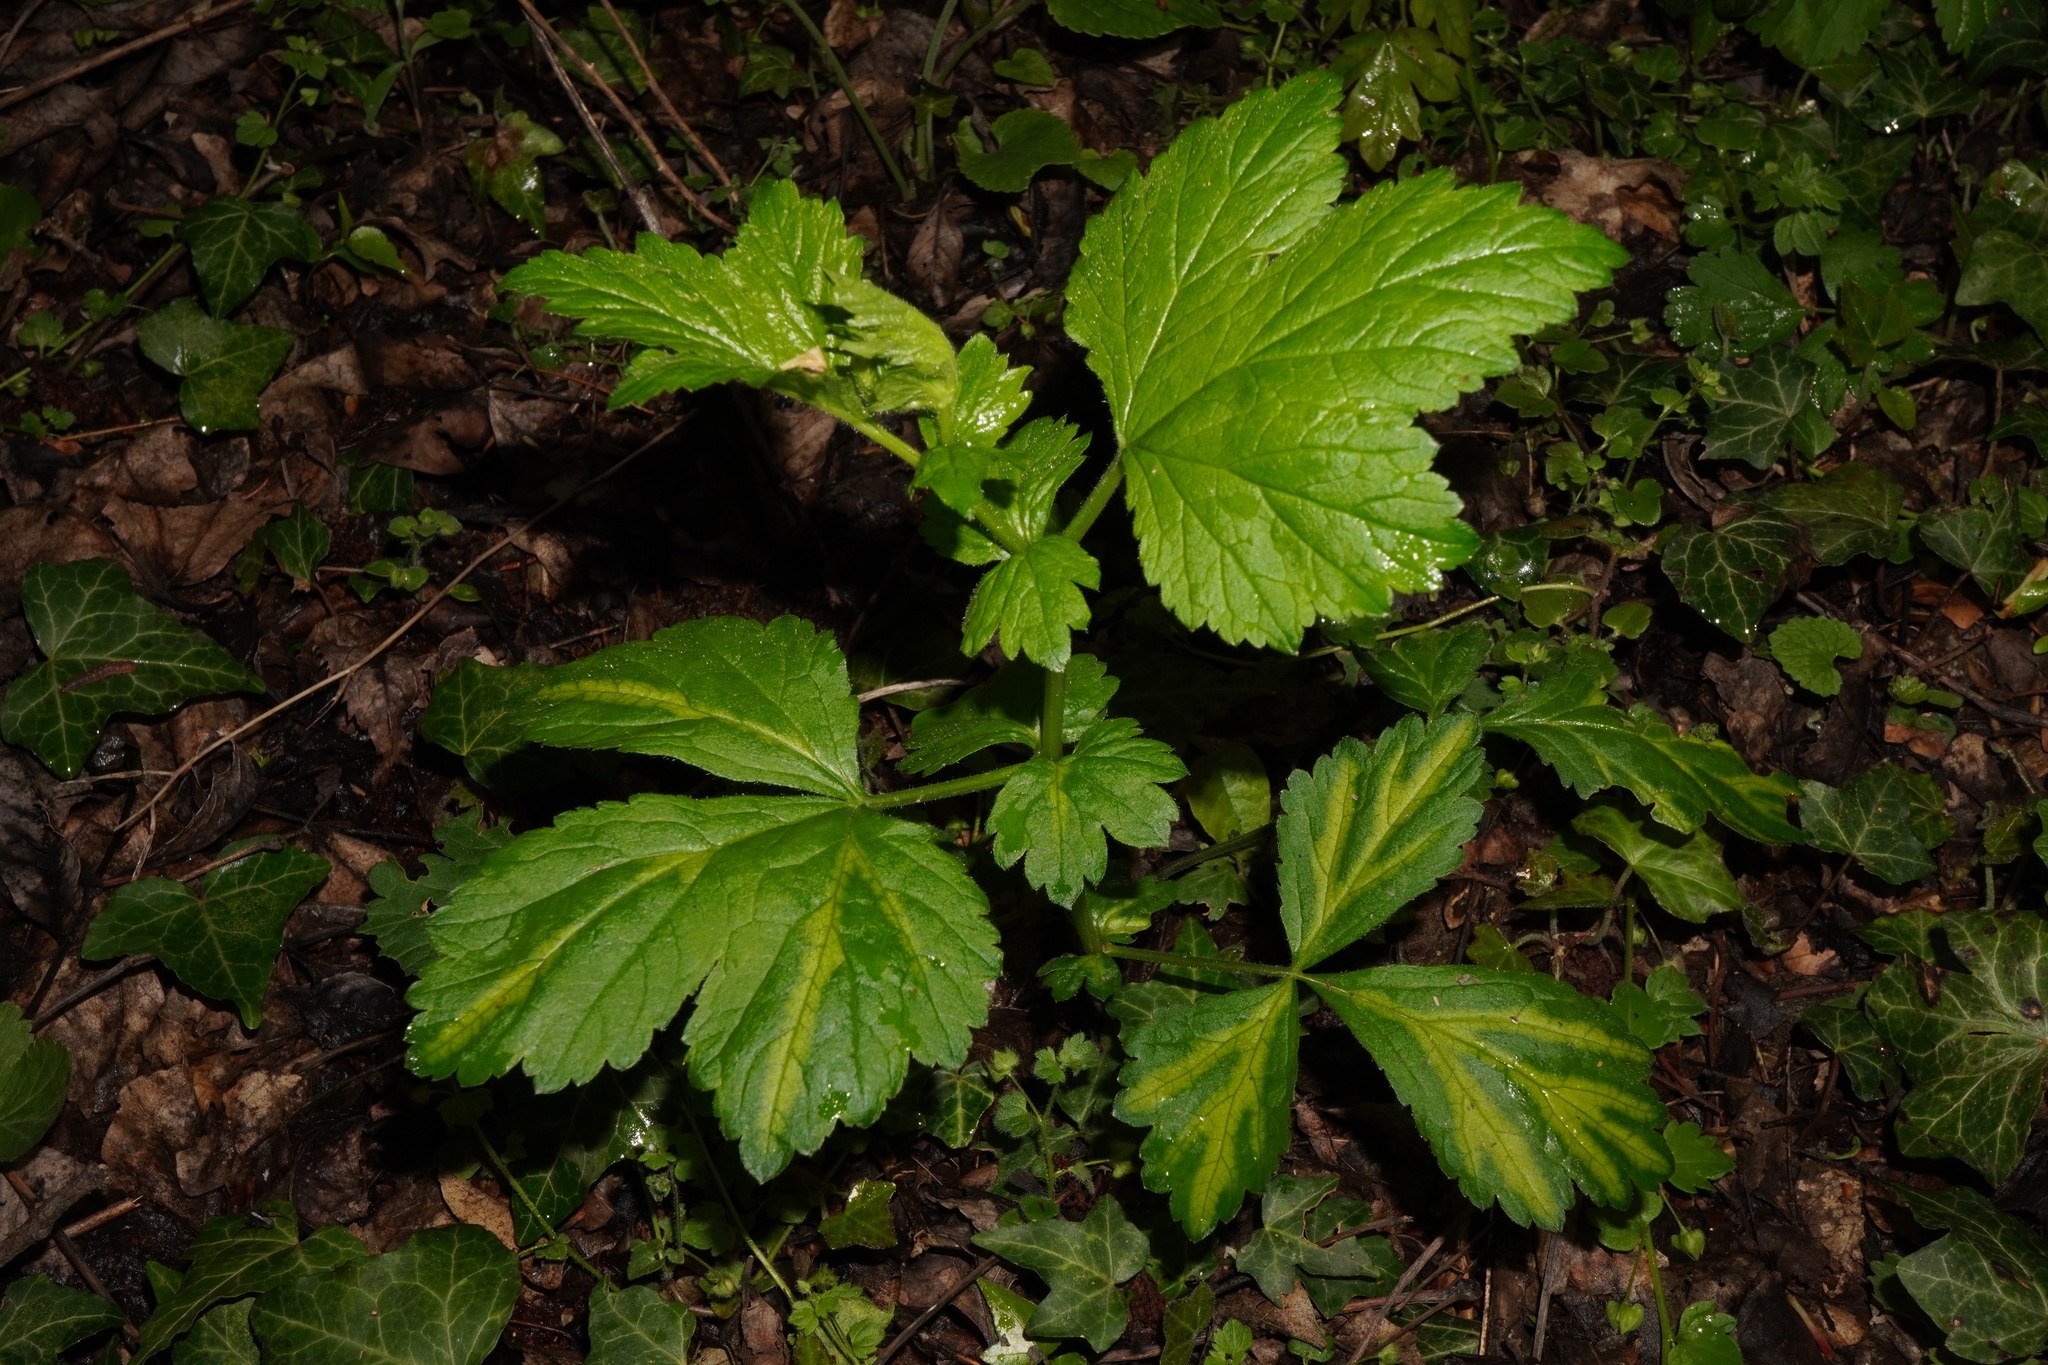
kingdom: Plantae
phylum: Tracheophyta
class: Magnoliopsida
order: Rosales
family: Rosaceae
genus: Geum
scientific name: Geum urbanum
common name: Wood avens
